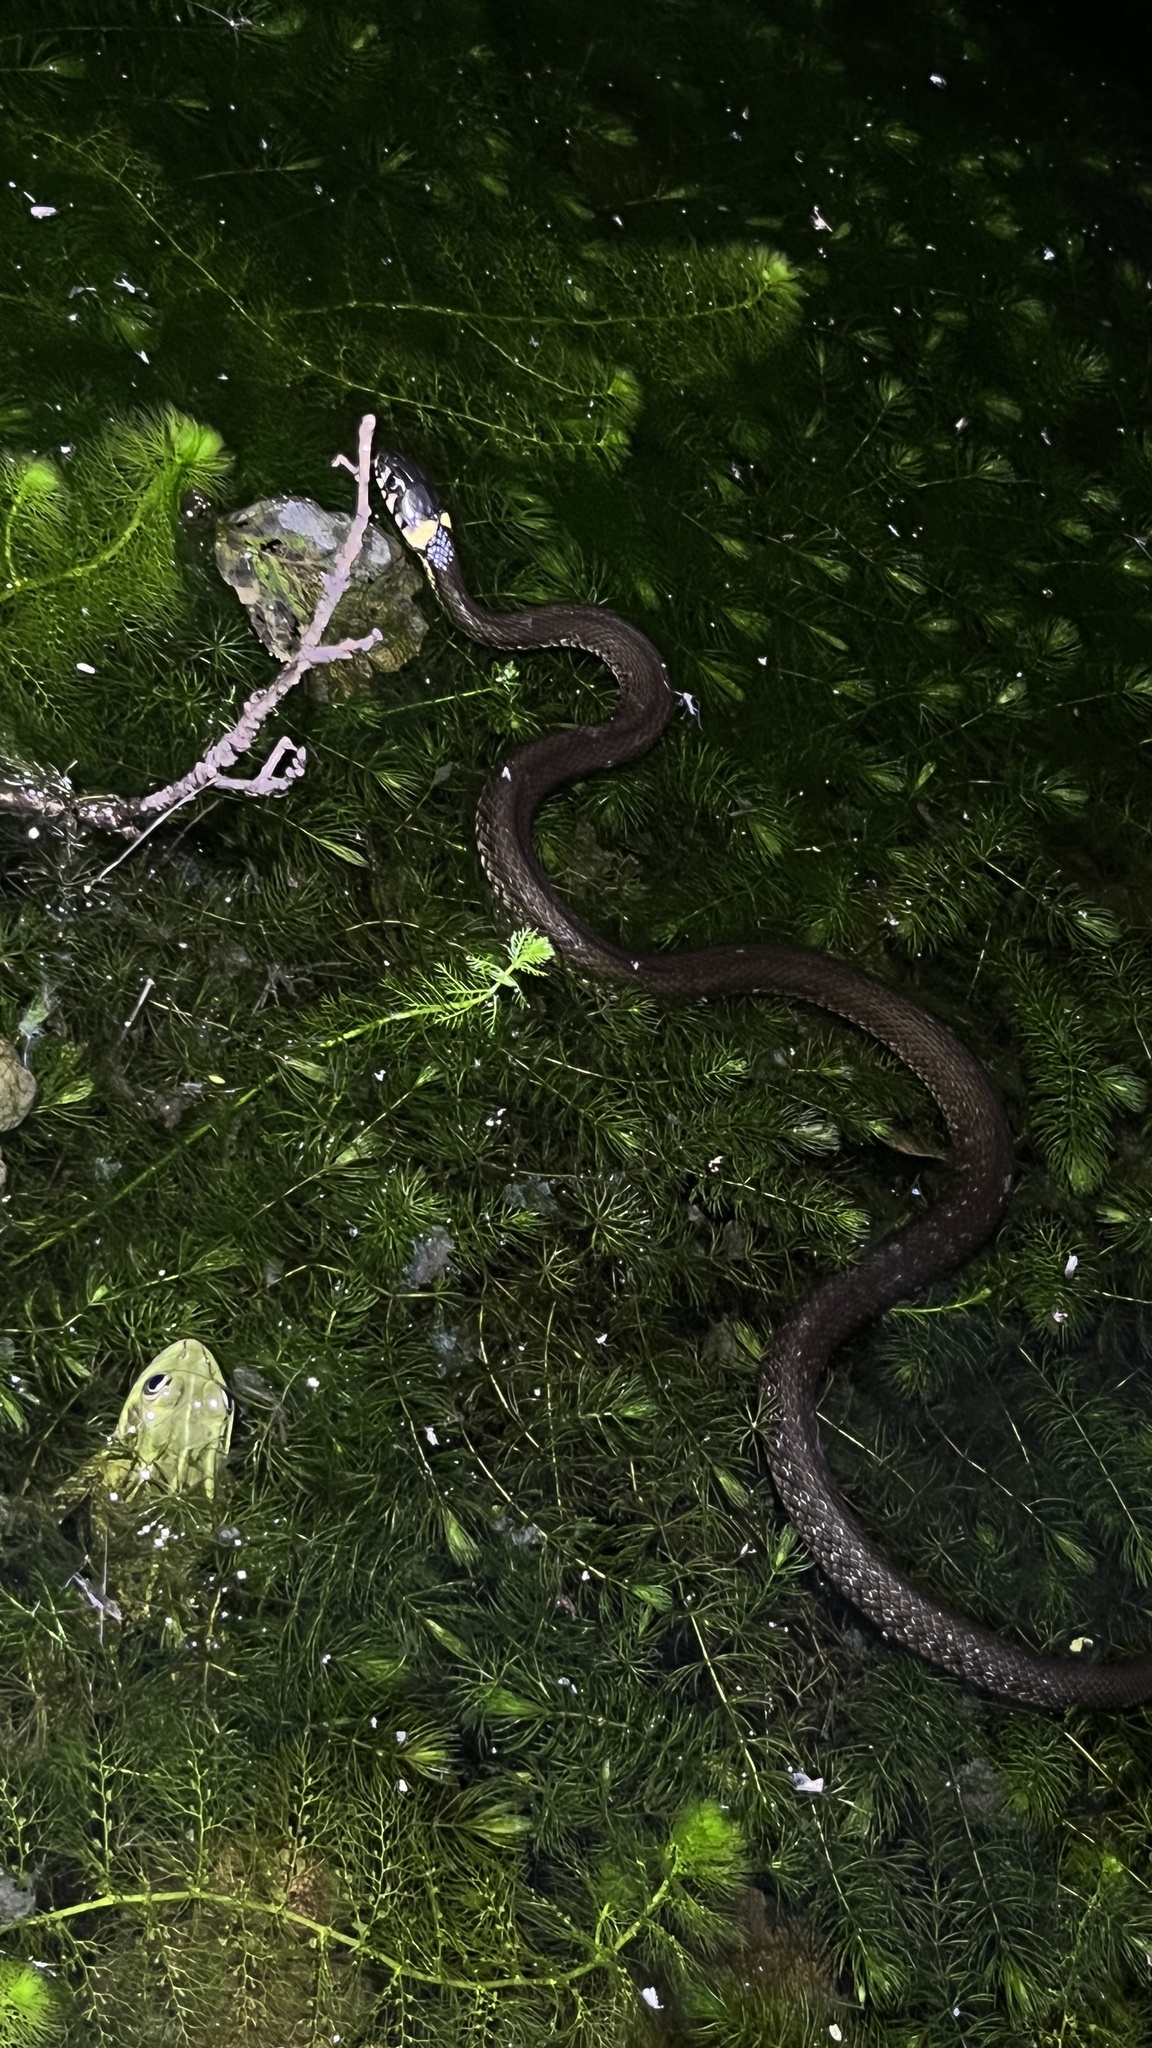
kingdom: Animalia
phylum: Chordata
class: Squamata
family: Colubridae
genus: Natrix
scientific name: Natrix natrix
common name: Grass snake
